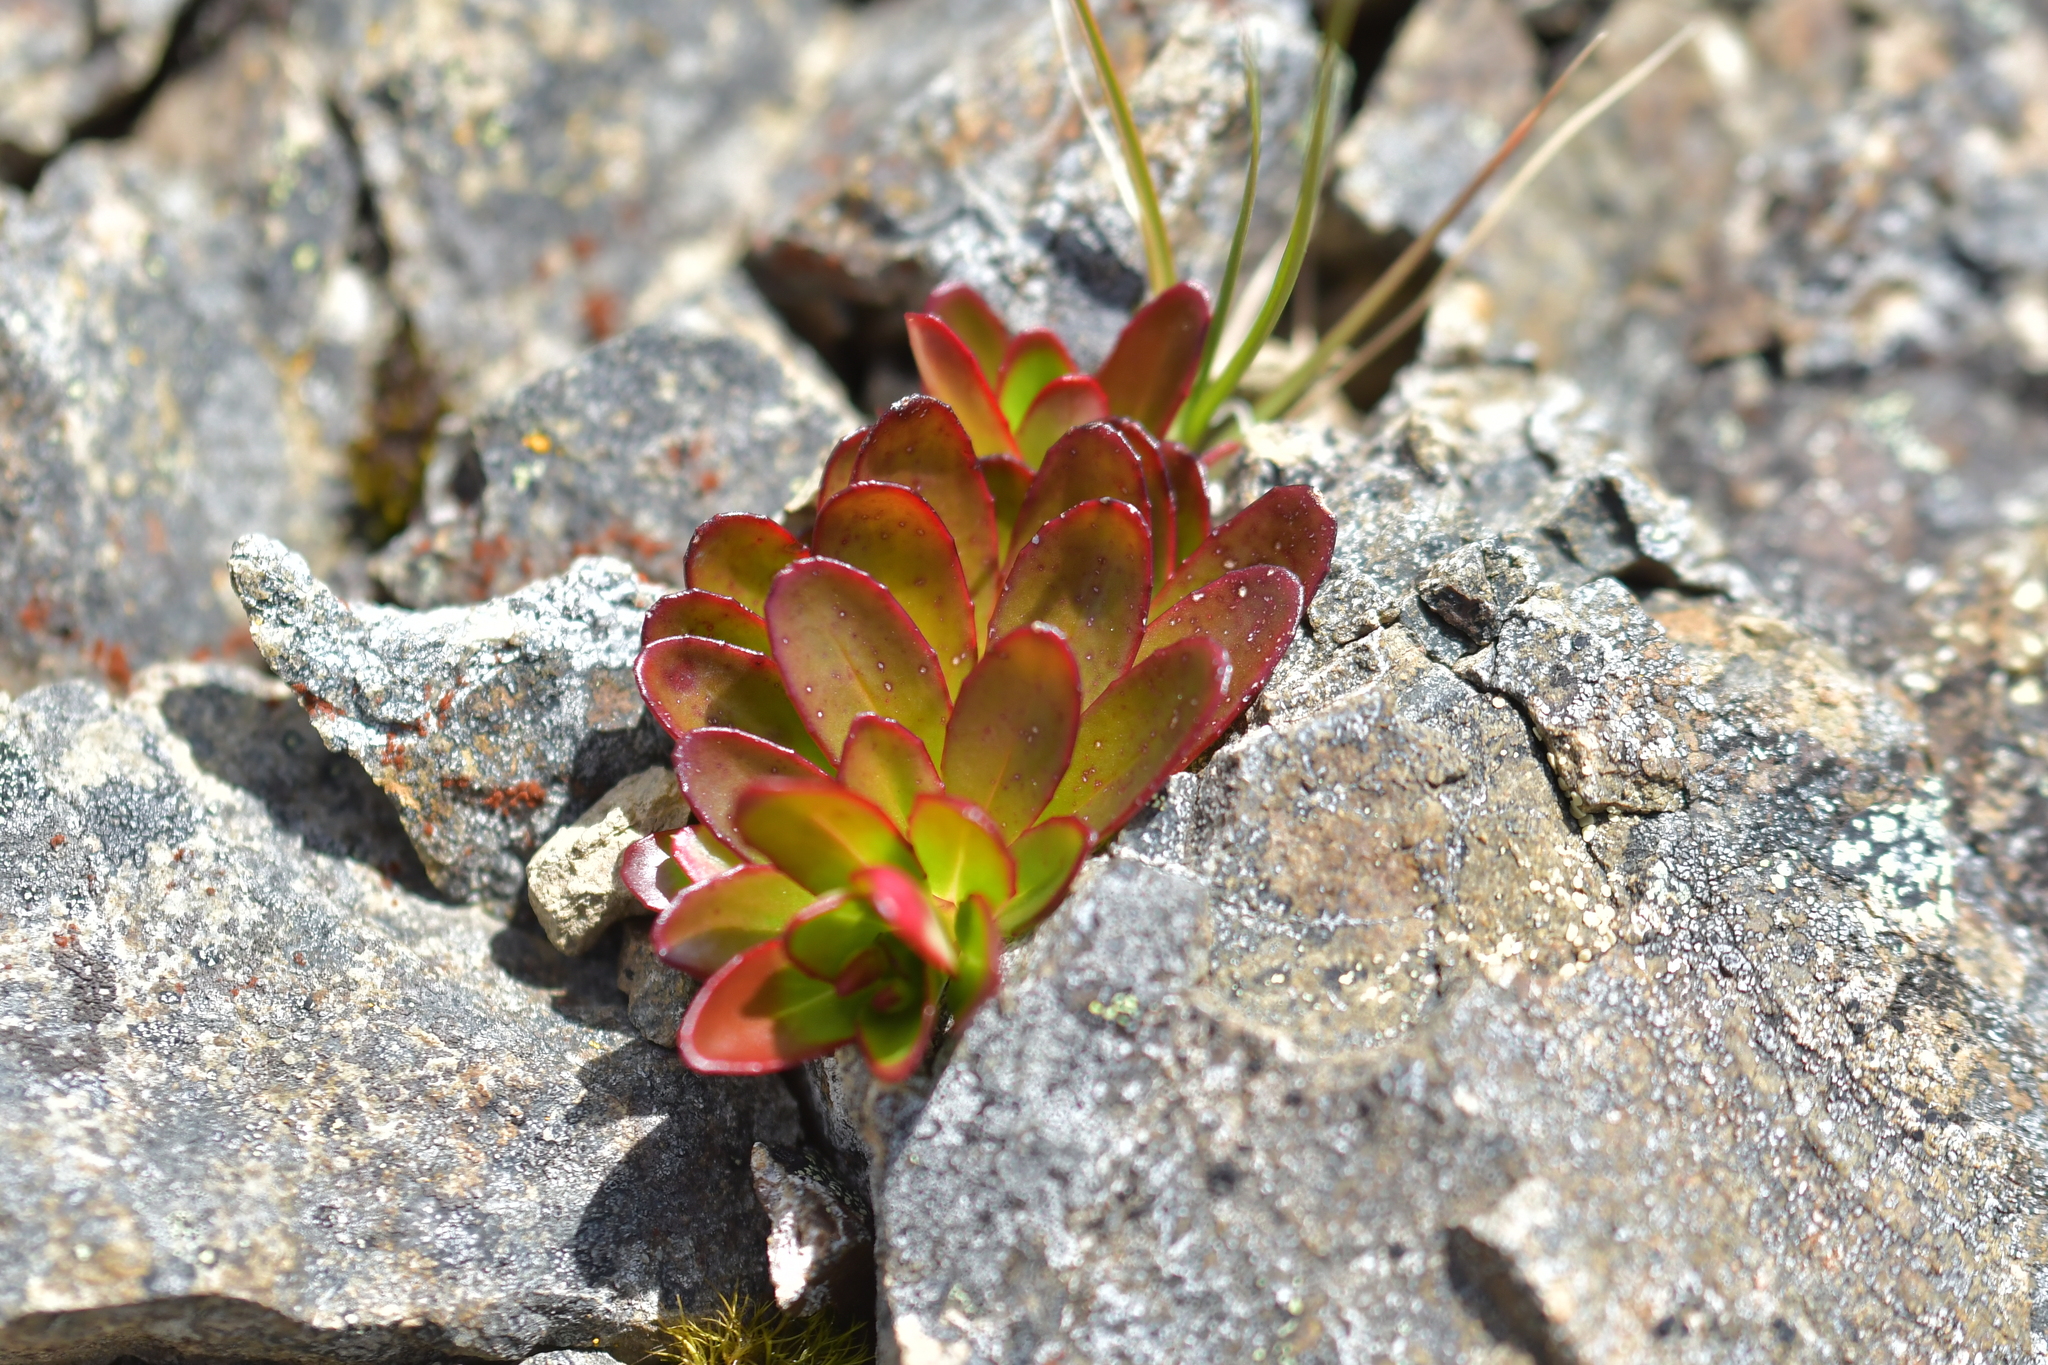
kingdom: Plantae
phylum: Tracheophyta
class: Magnoliopsida
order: Myrtales
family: Onagraceae
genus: Epilobium
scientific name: Epilobium crassum
